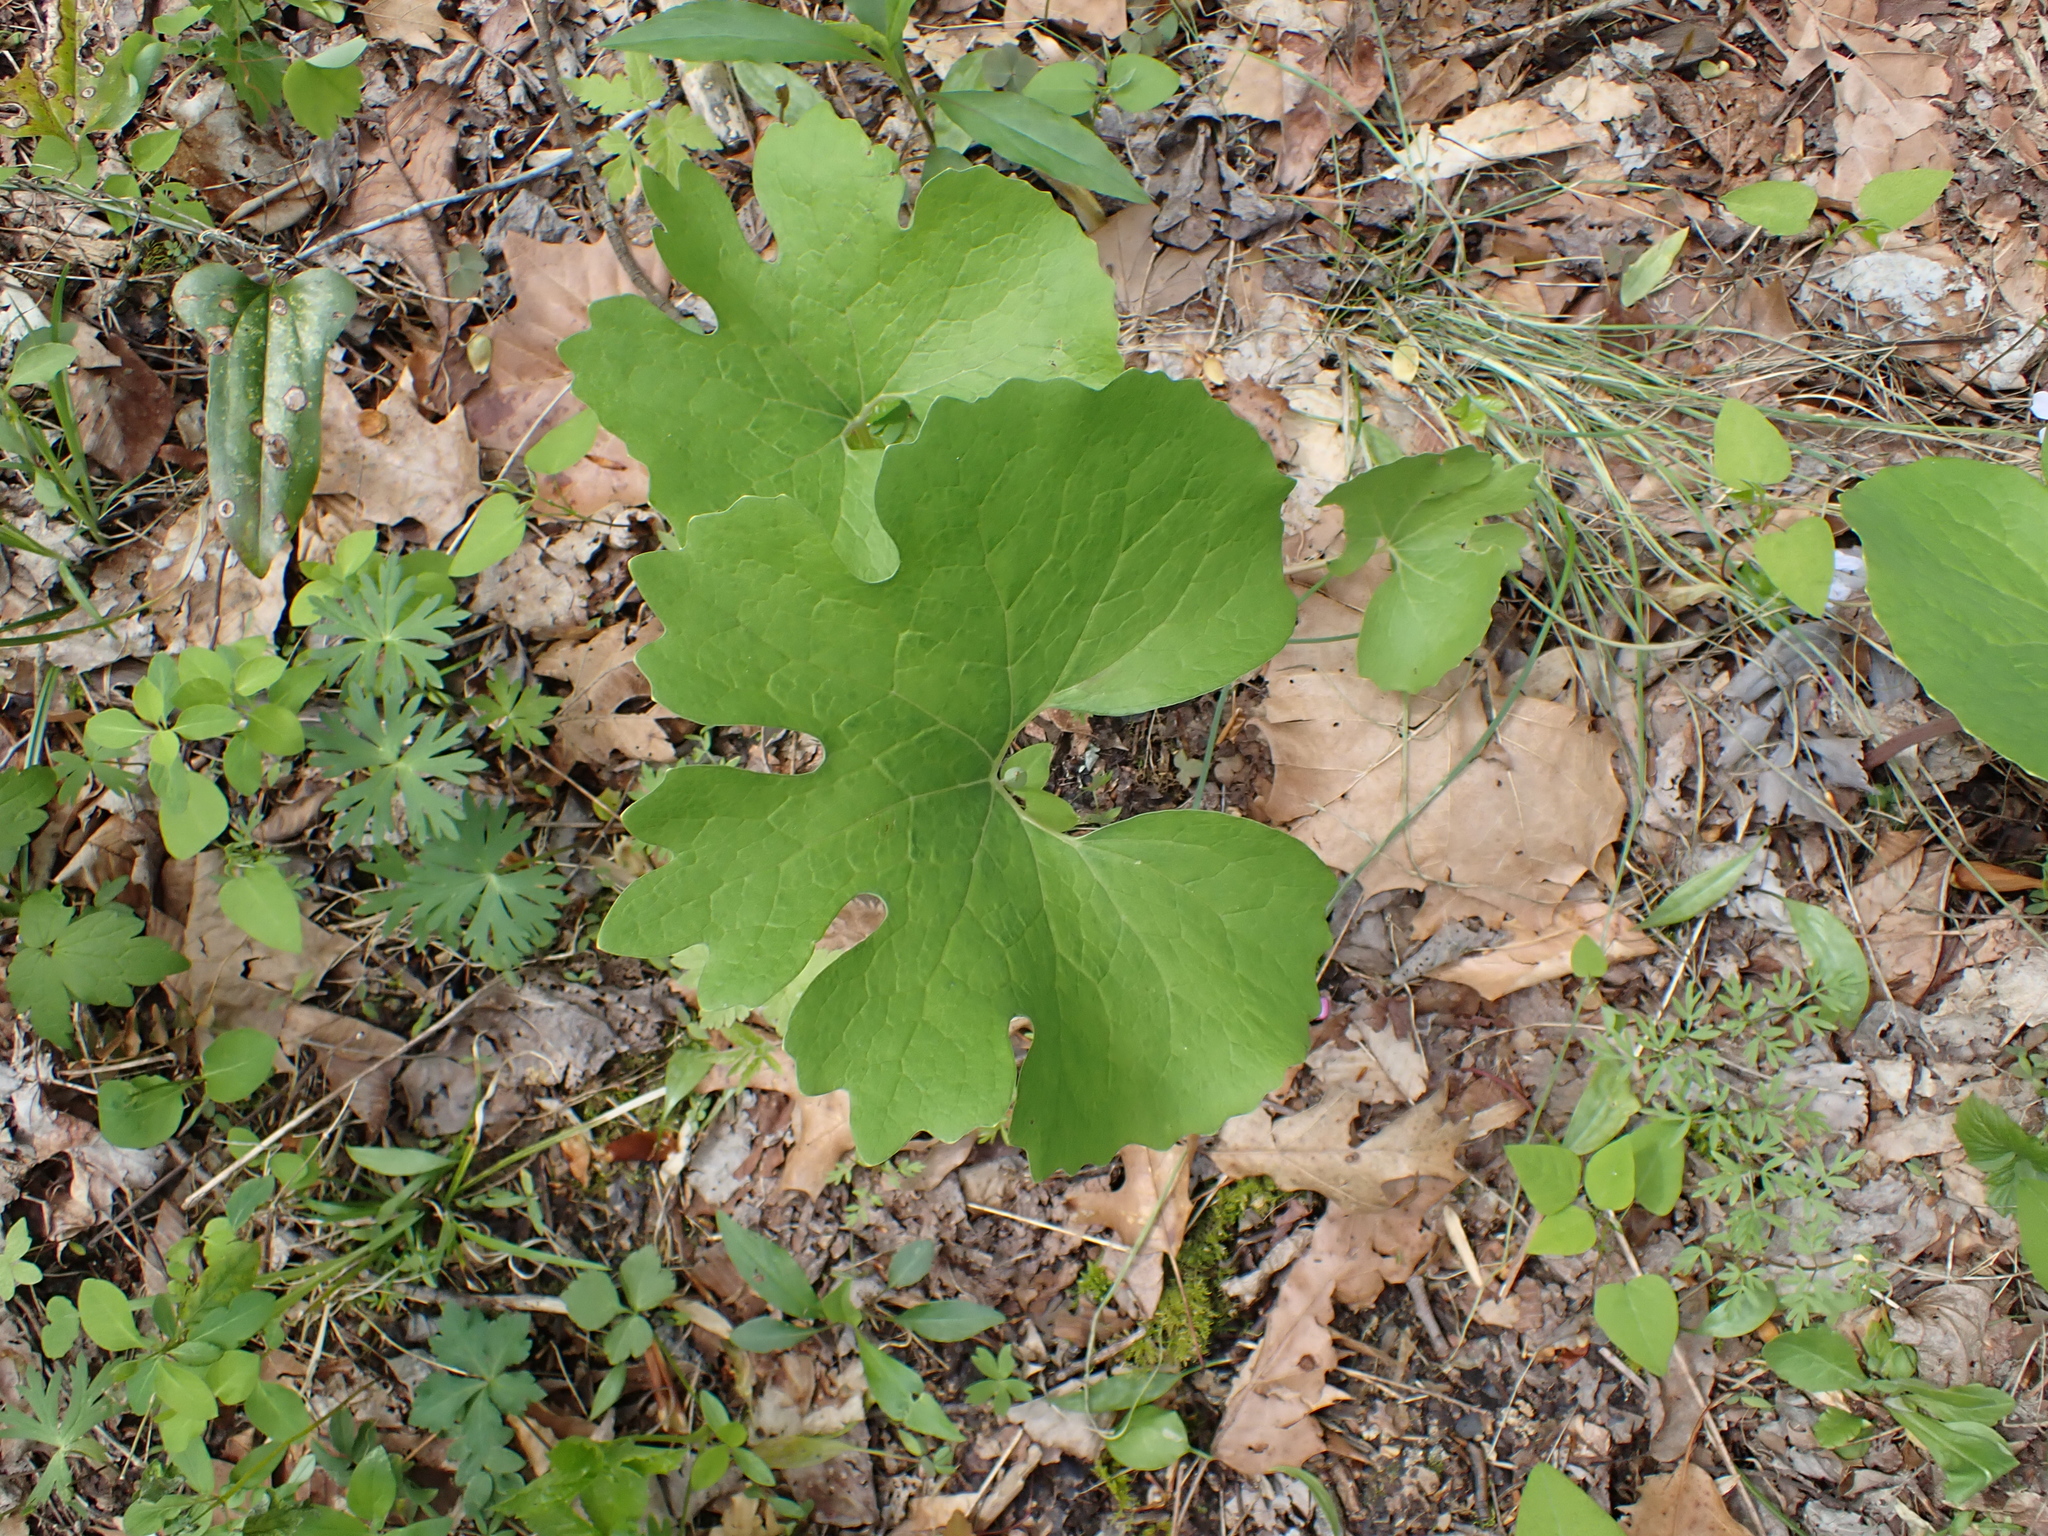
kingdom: Plantae
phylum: Tracheophyta
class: Magnoliopsida
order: Ranunculales
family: Papaveraceae
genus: Sanguinaria
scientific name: Sanguinaria canadensis
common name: Bloodroot
